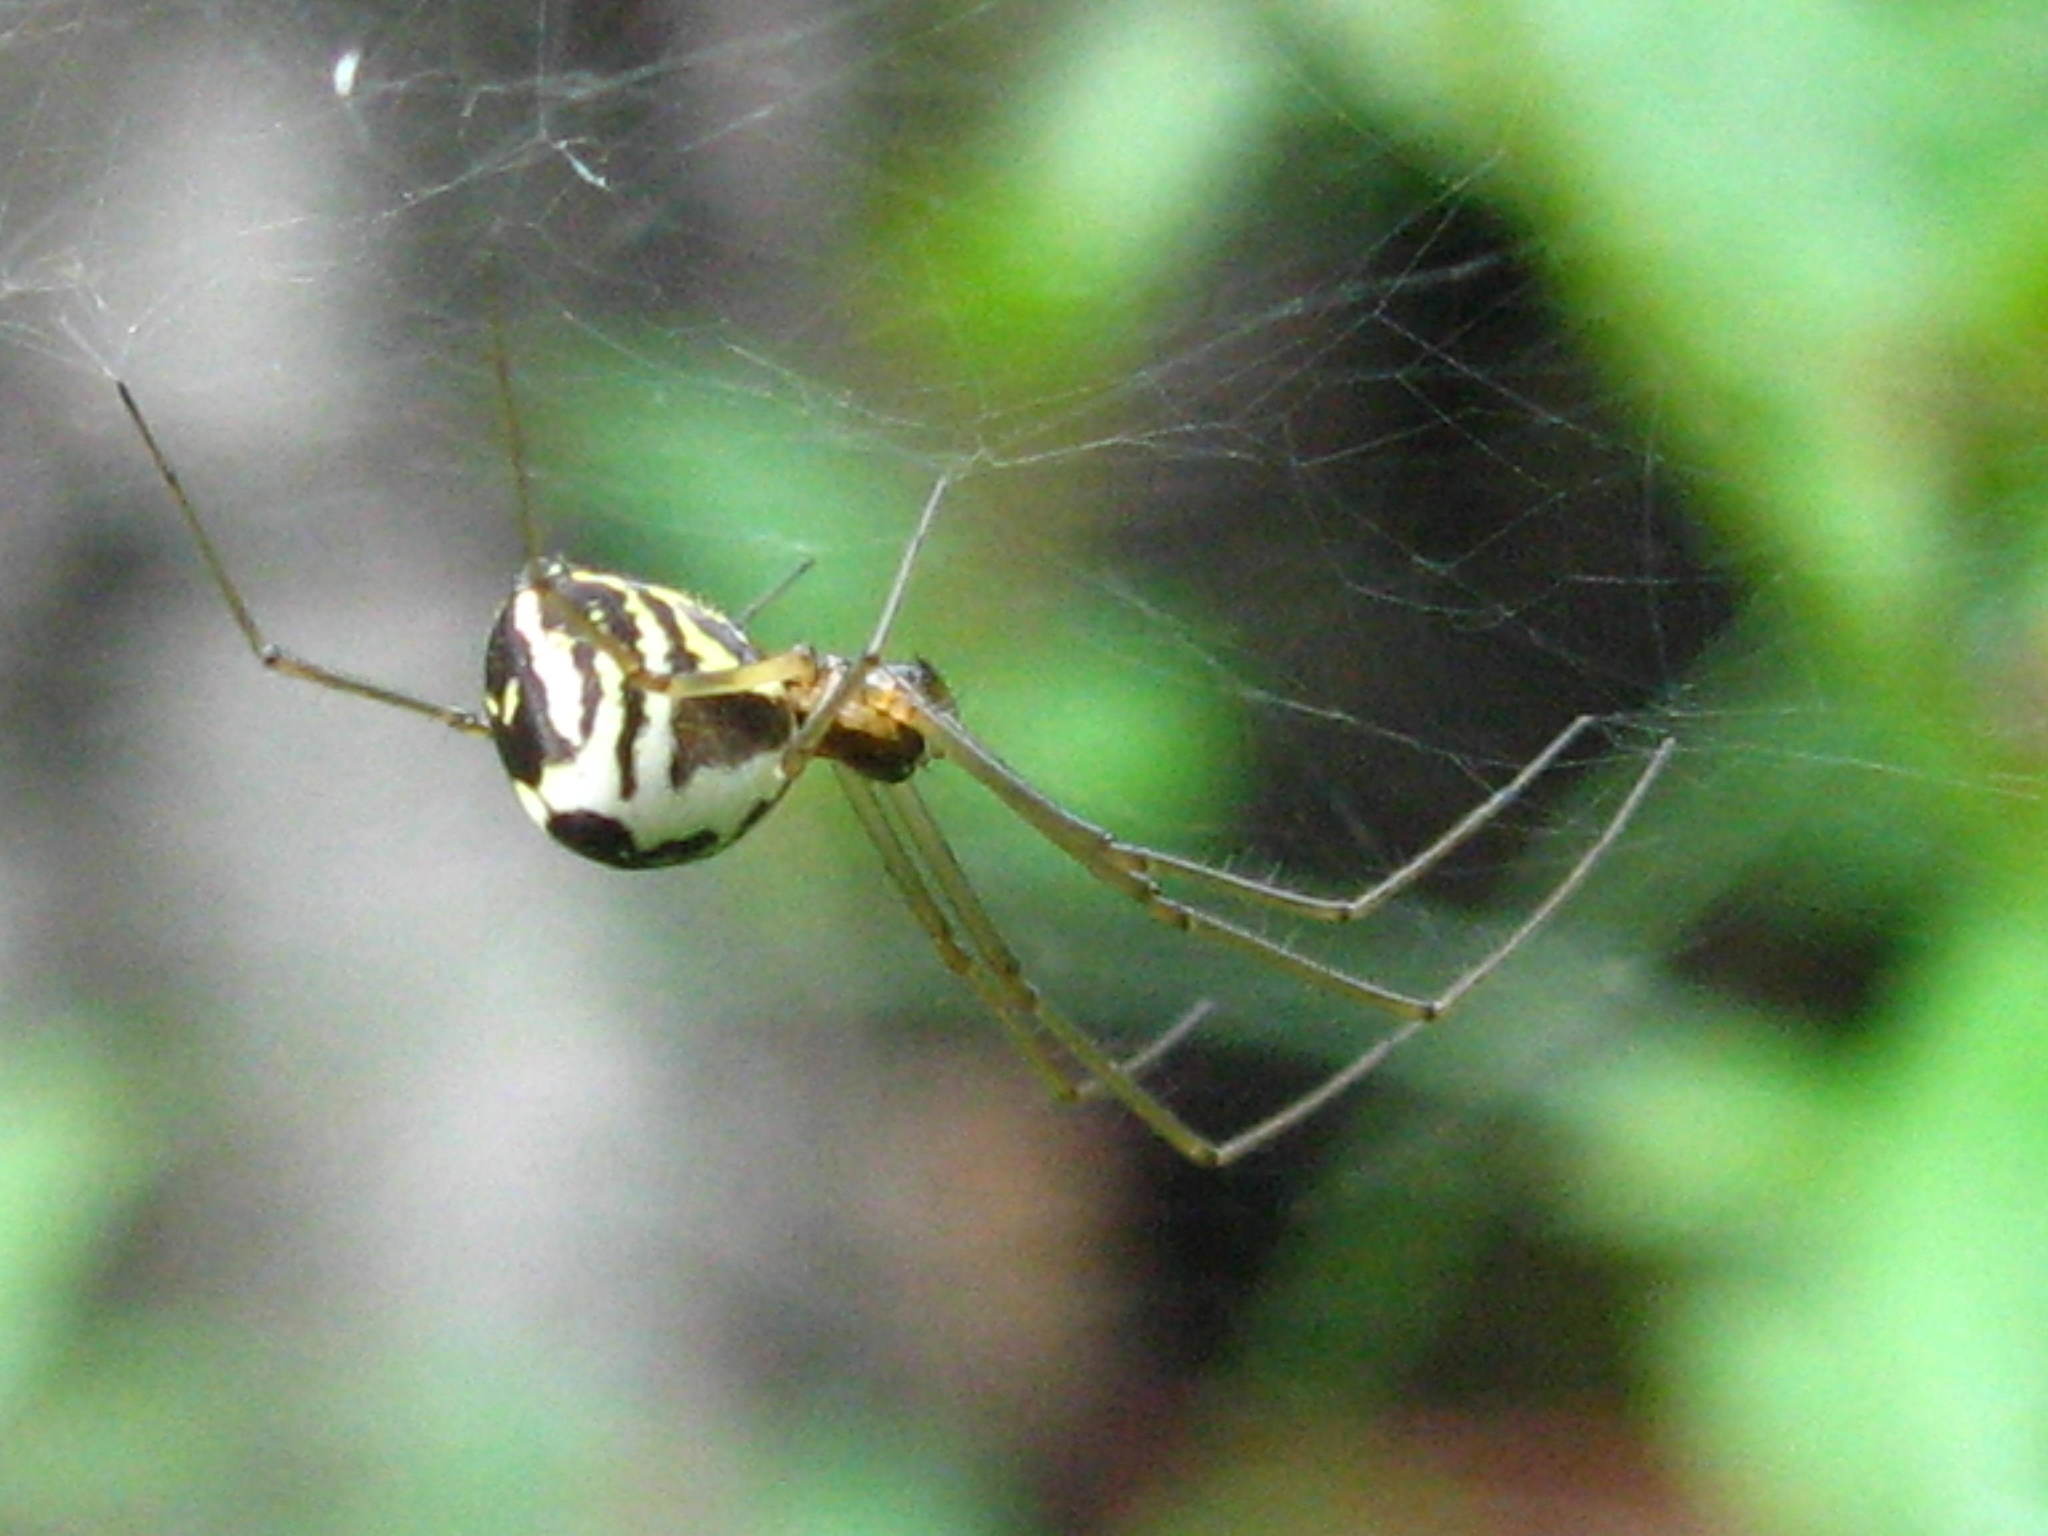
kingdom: Animalia
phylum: Arthropoda
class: Arachnida
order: Araneae
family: Linyphiidae
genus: Neriene
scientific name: Neriene radiata
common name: Filmy dome spider
